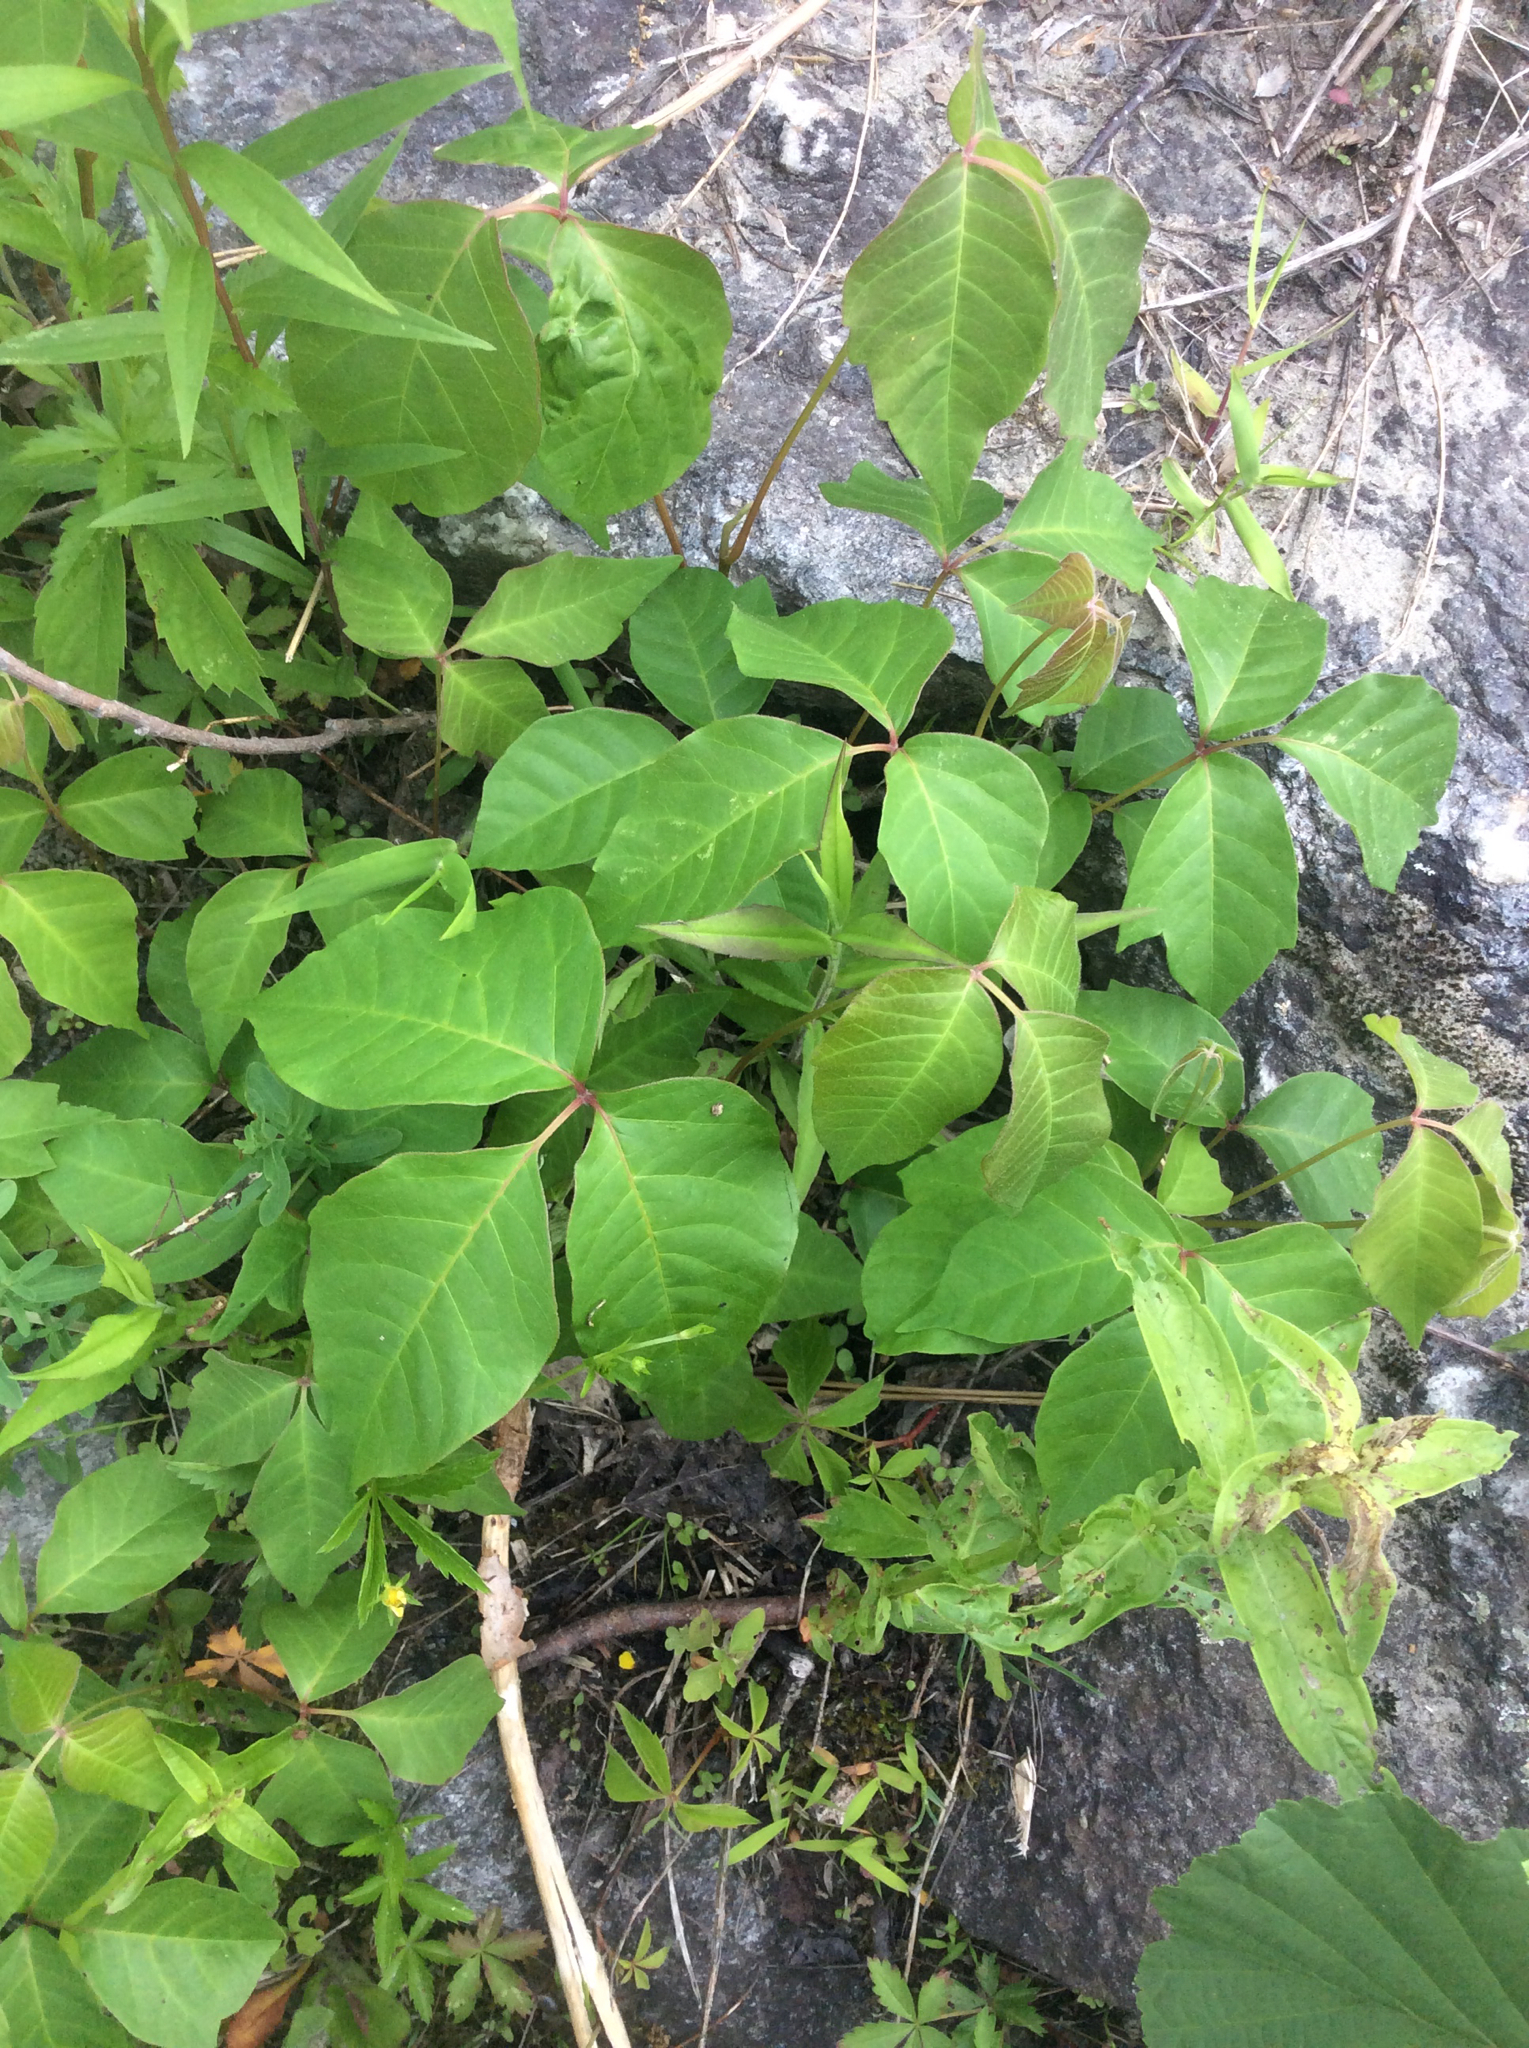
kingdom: Plantae
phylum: Tracheophyta
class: Magnoliopsida
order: Sapindales
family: Anacardiaceae
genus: Toxicodendron
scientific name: Toxicodendron radicans
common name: Poison ivy
